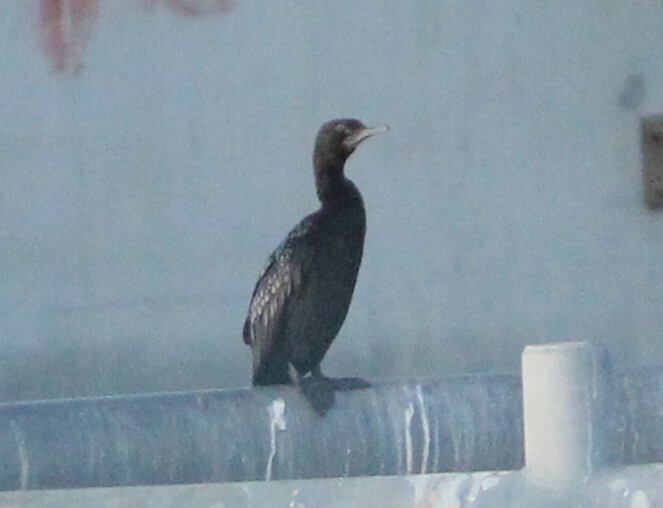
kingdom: Animalia
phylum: Chordata
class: Aves
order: Suliformes
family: Phalacrocoracidae
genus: Phalacrocorax
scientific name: Phalacrocorax sulcirostris
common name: Little black cormorant
